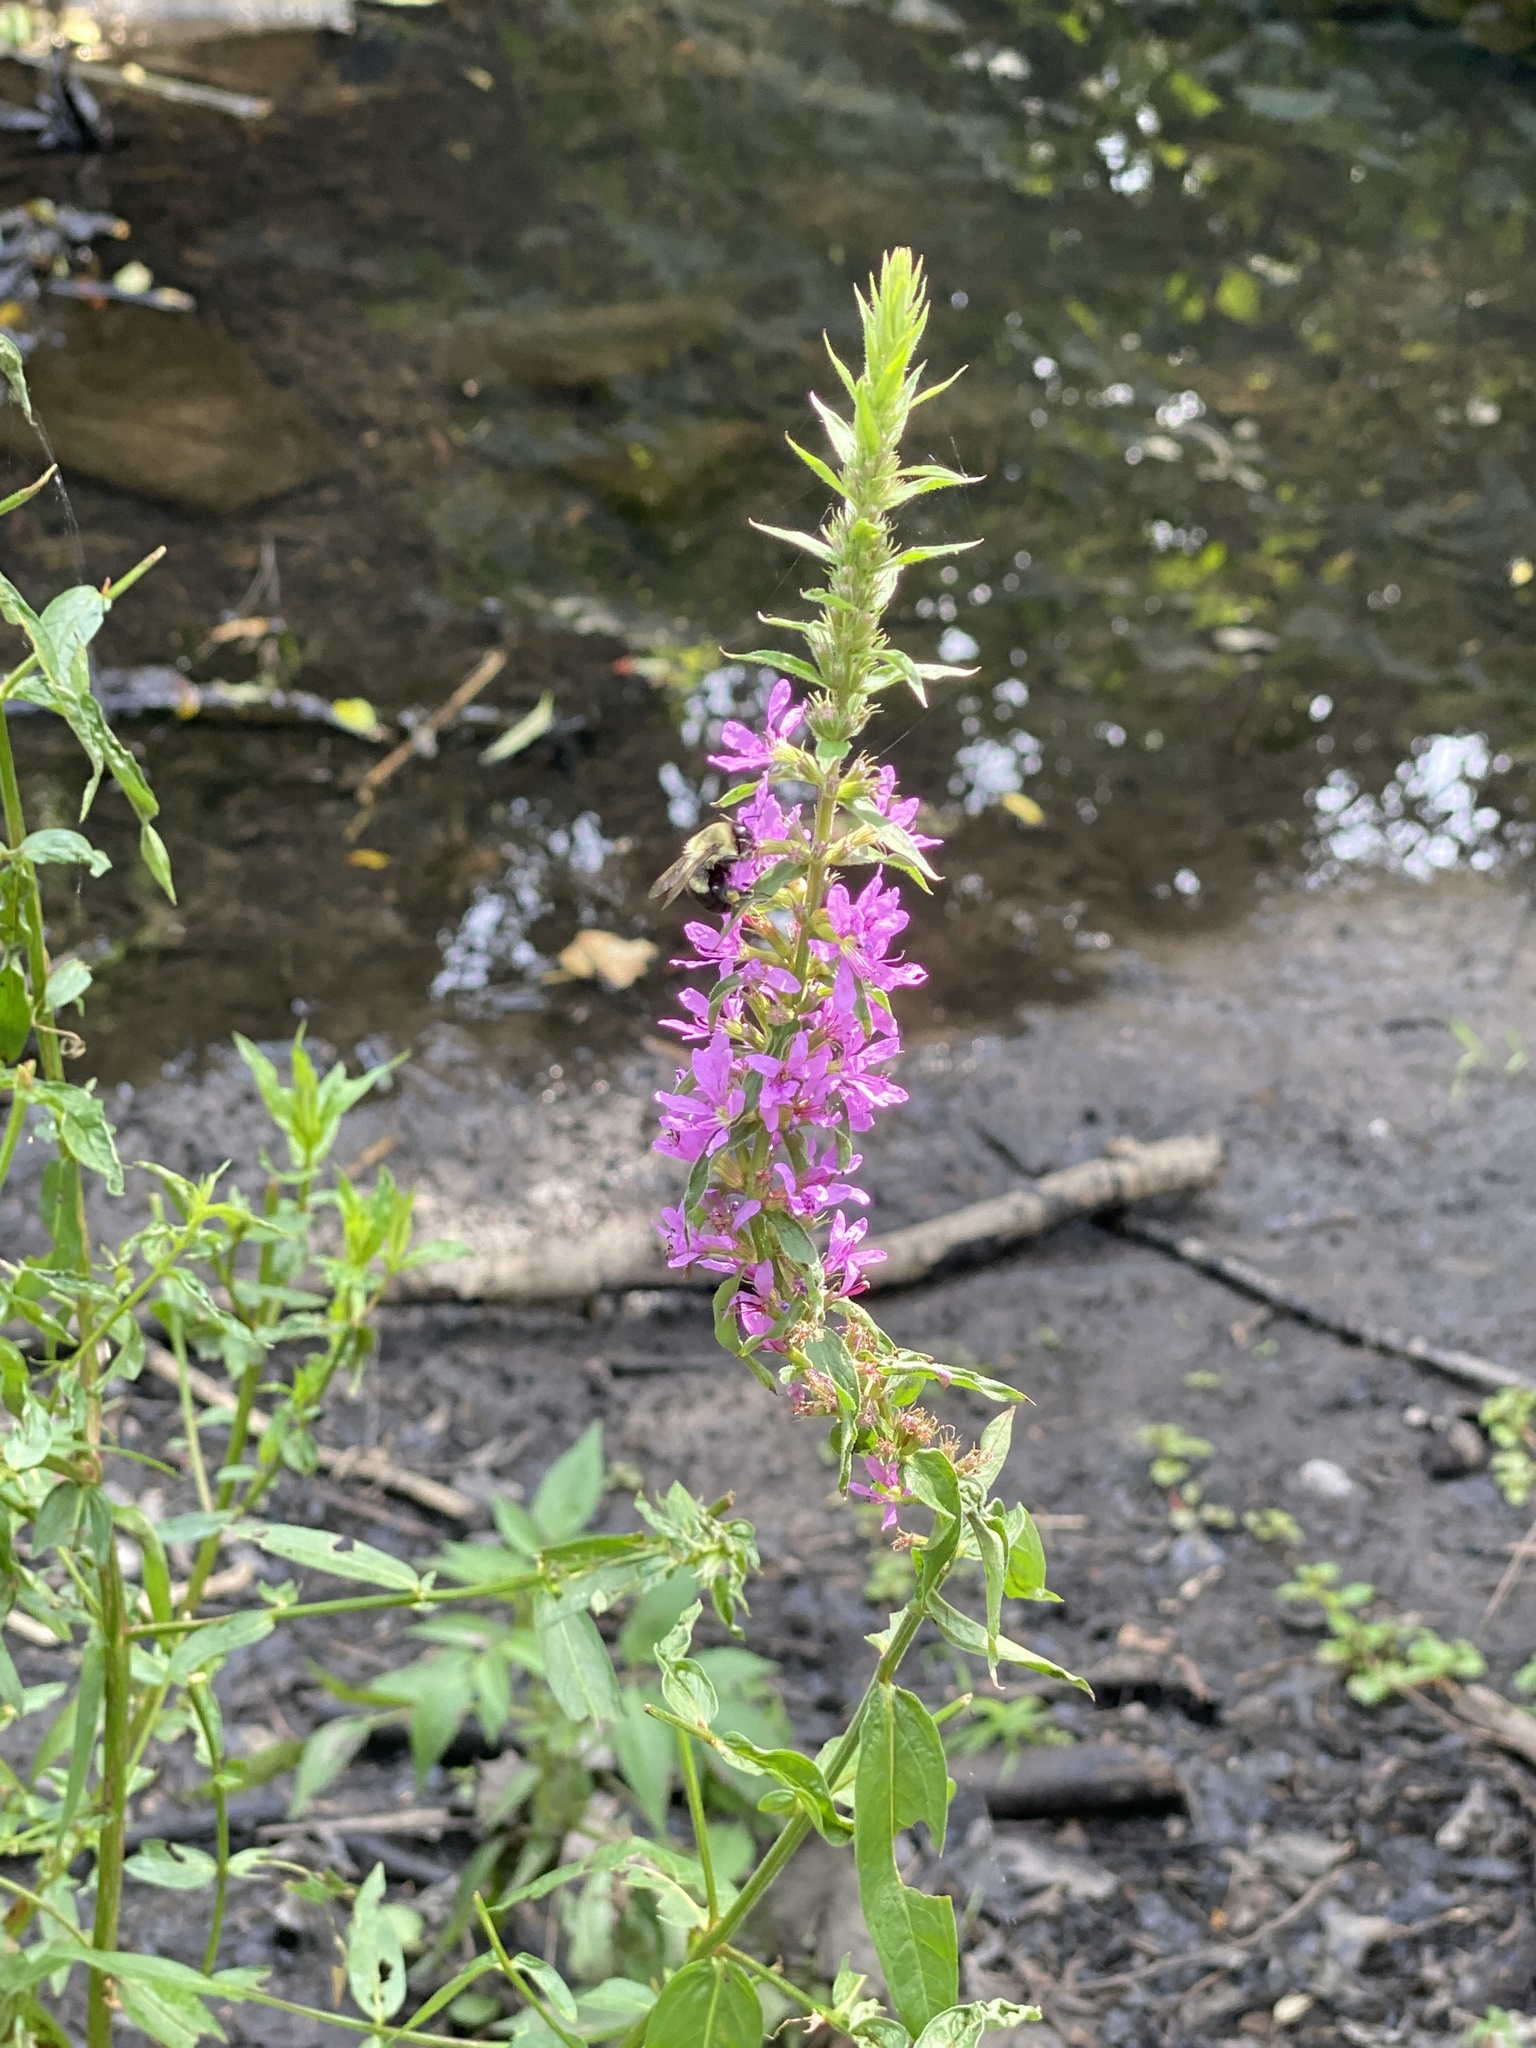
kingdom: Plantae
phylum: Tracheophyta
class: Magnoliopsida
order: Myrtales
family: Lythraceae
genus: Lythrum
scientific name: Lythrum salicaria
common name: Purple loosestrife
